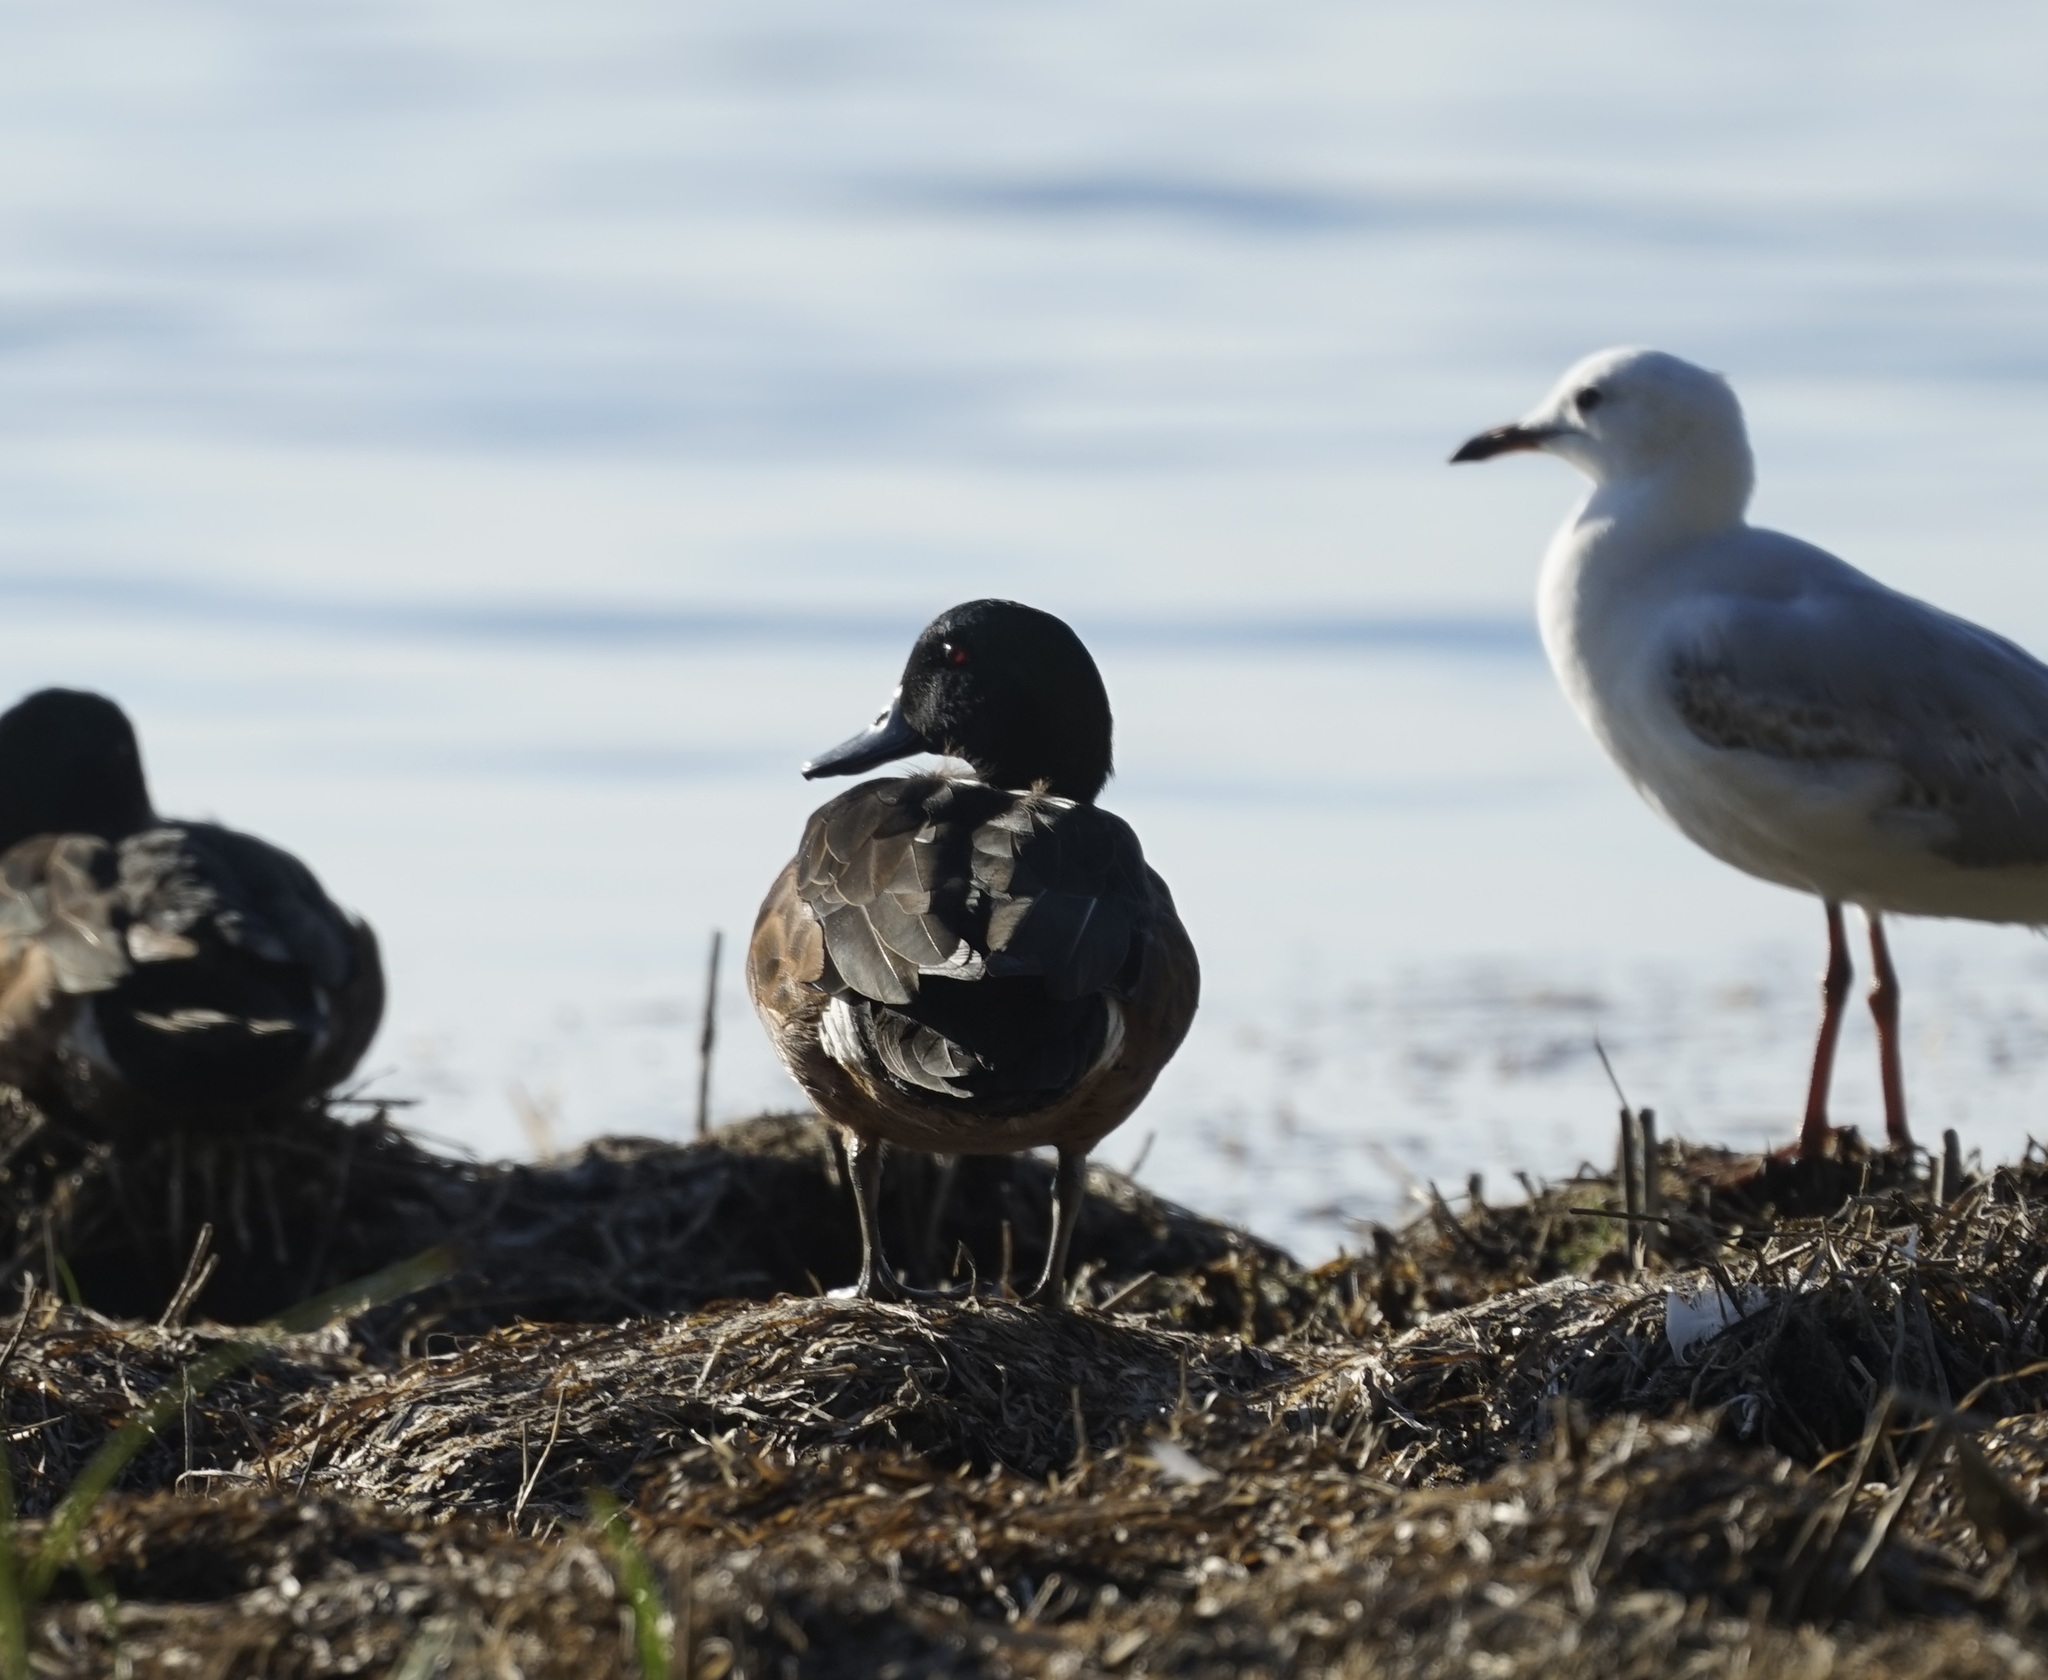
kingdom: Animalia
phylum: Chordata
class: Aves
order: Anseriformes
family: Anatidae
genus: Anas
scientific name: Anas castanea
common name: Chestnut teal
